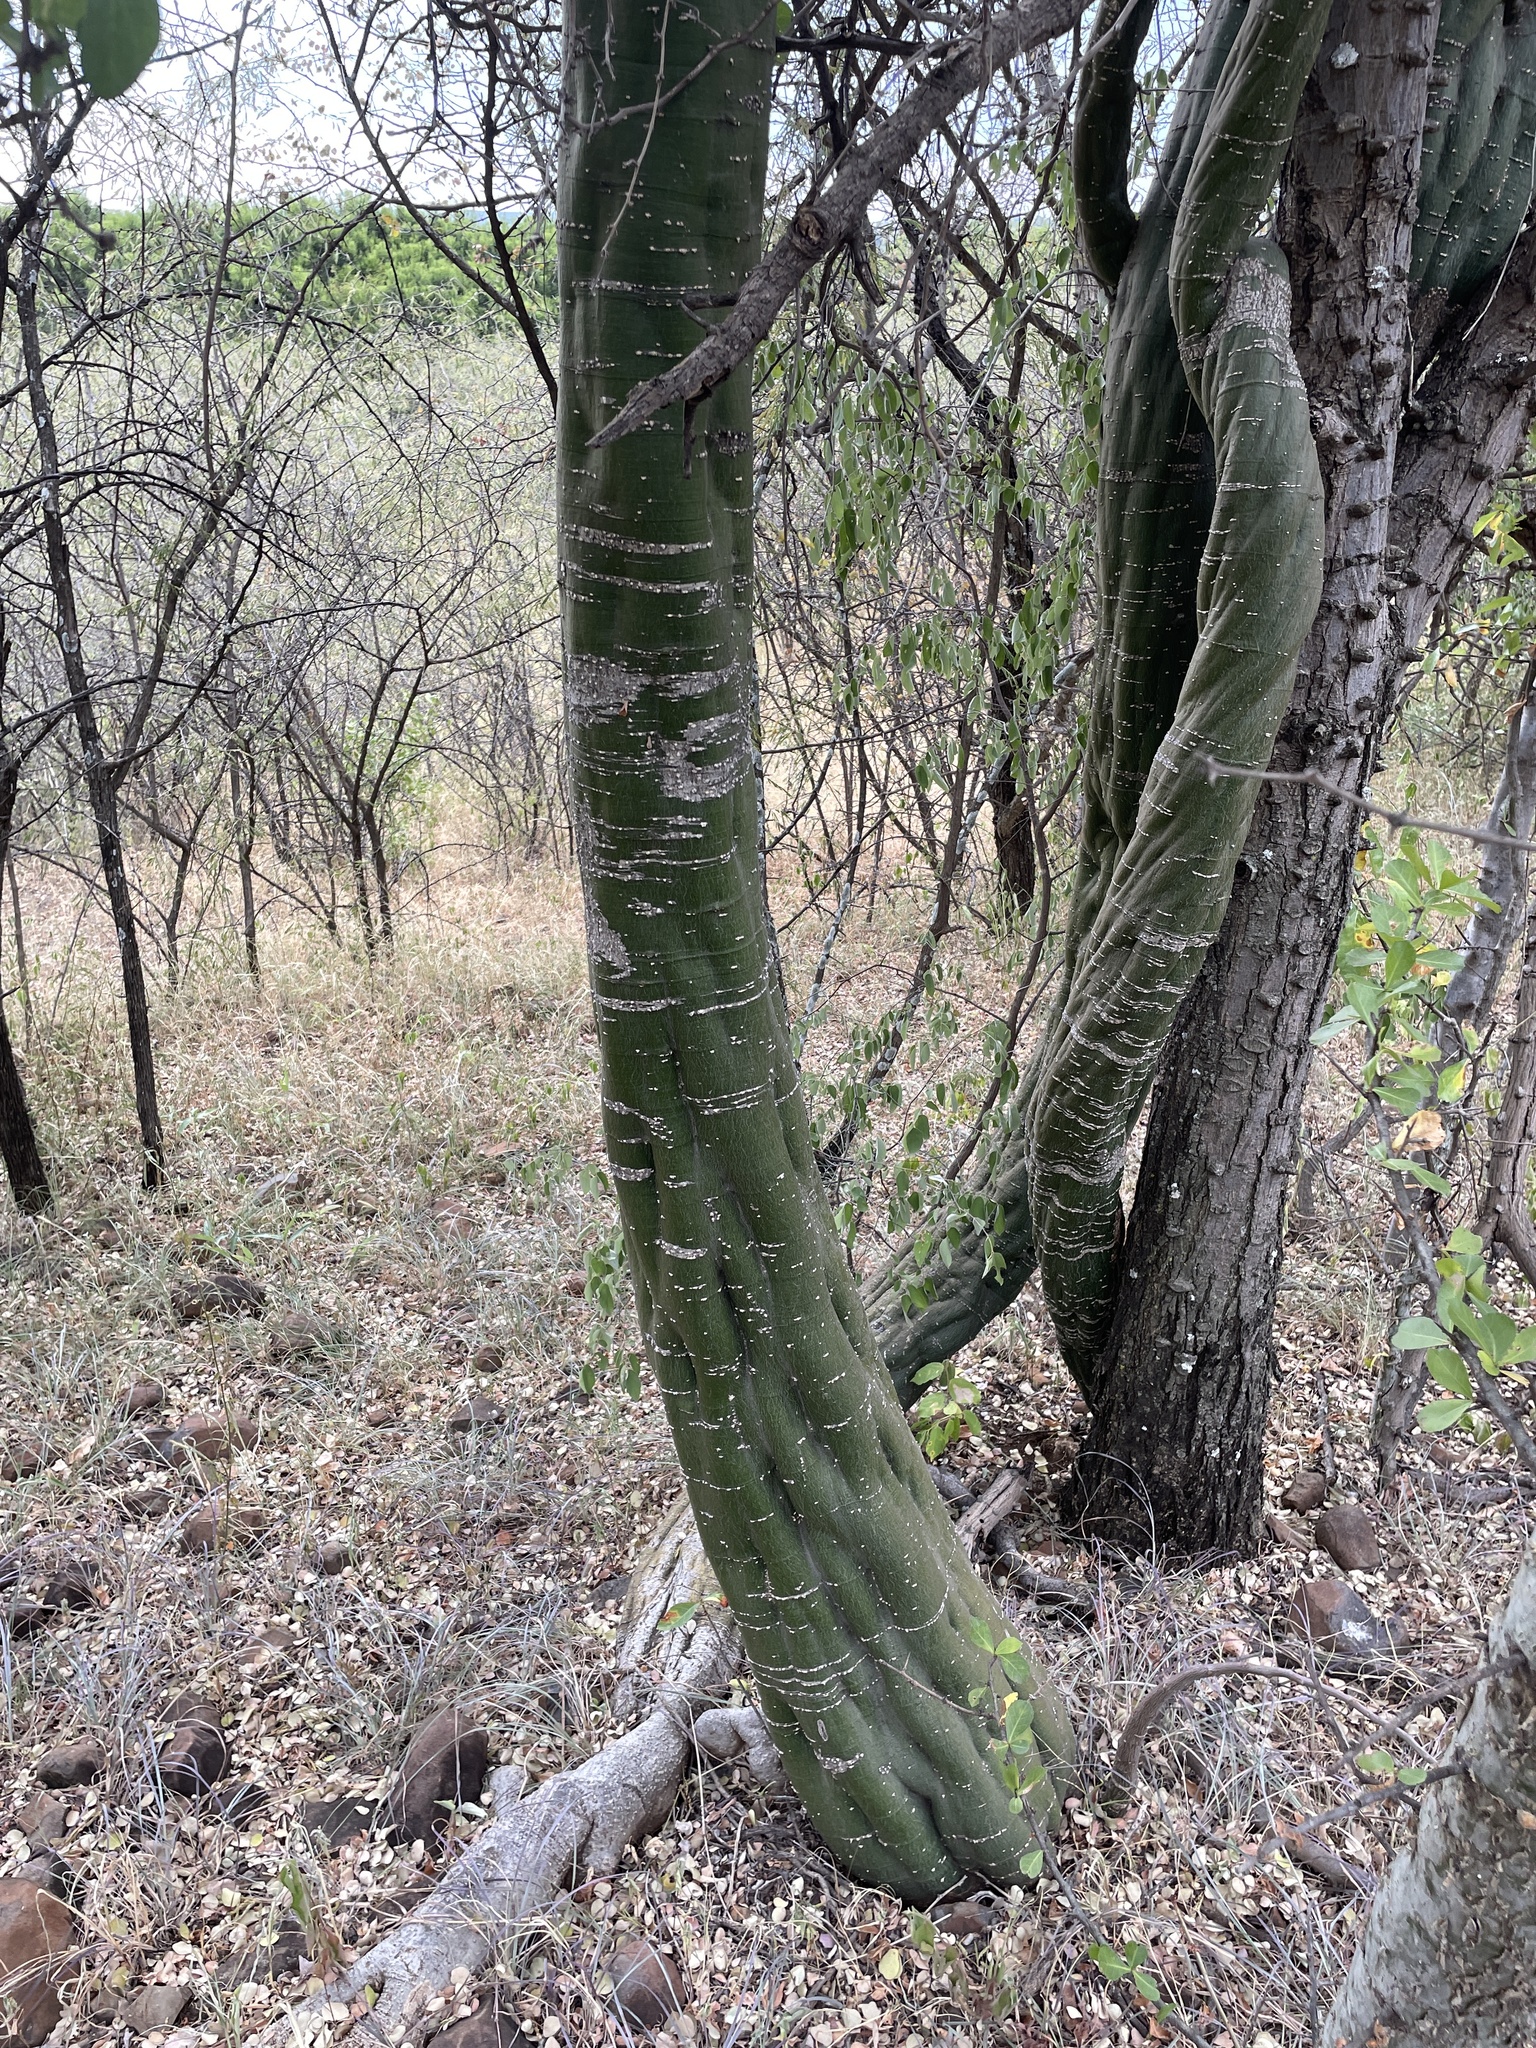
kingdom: Plantae
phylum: Tracheophyta
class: Magnoliopsida
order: Malpighiales
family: Passifloraceae
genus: Adenia
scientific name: Adenia fruticosa
